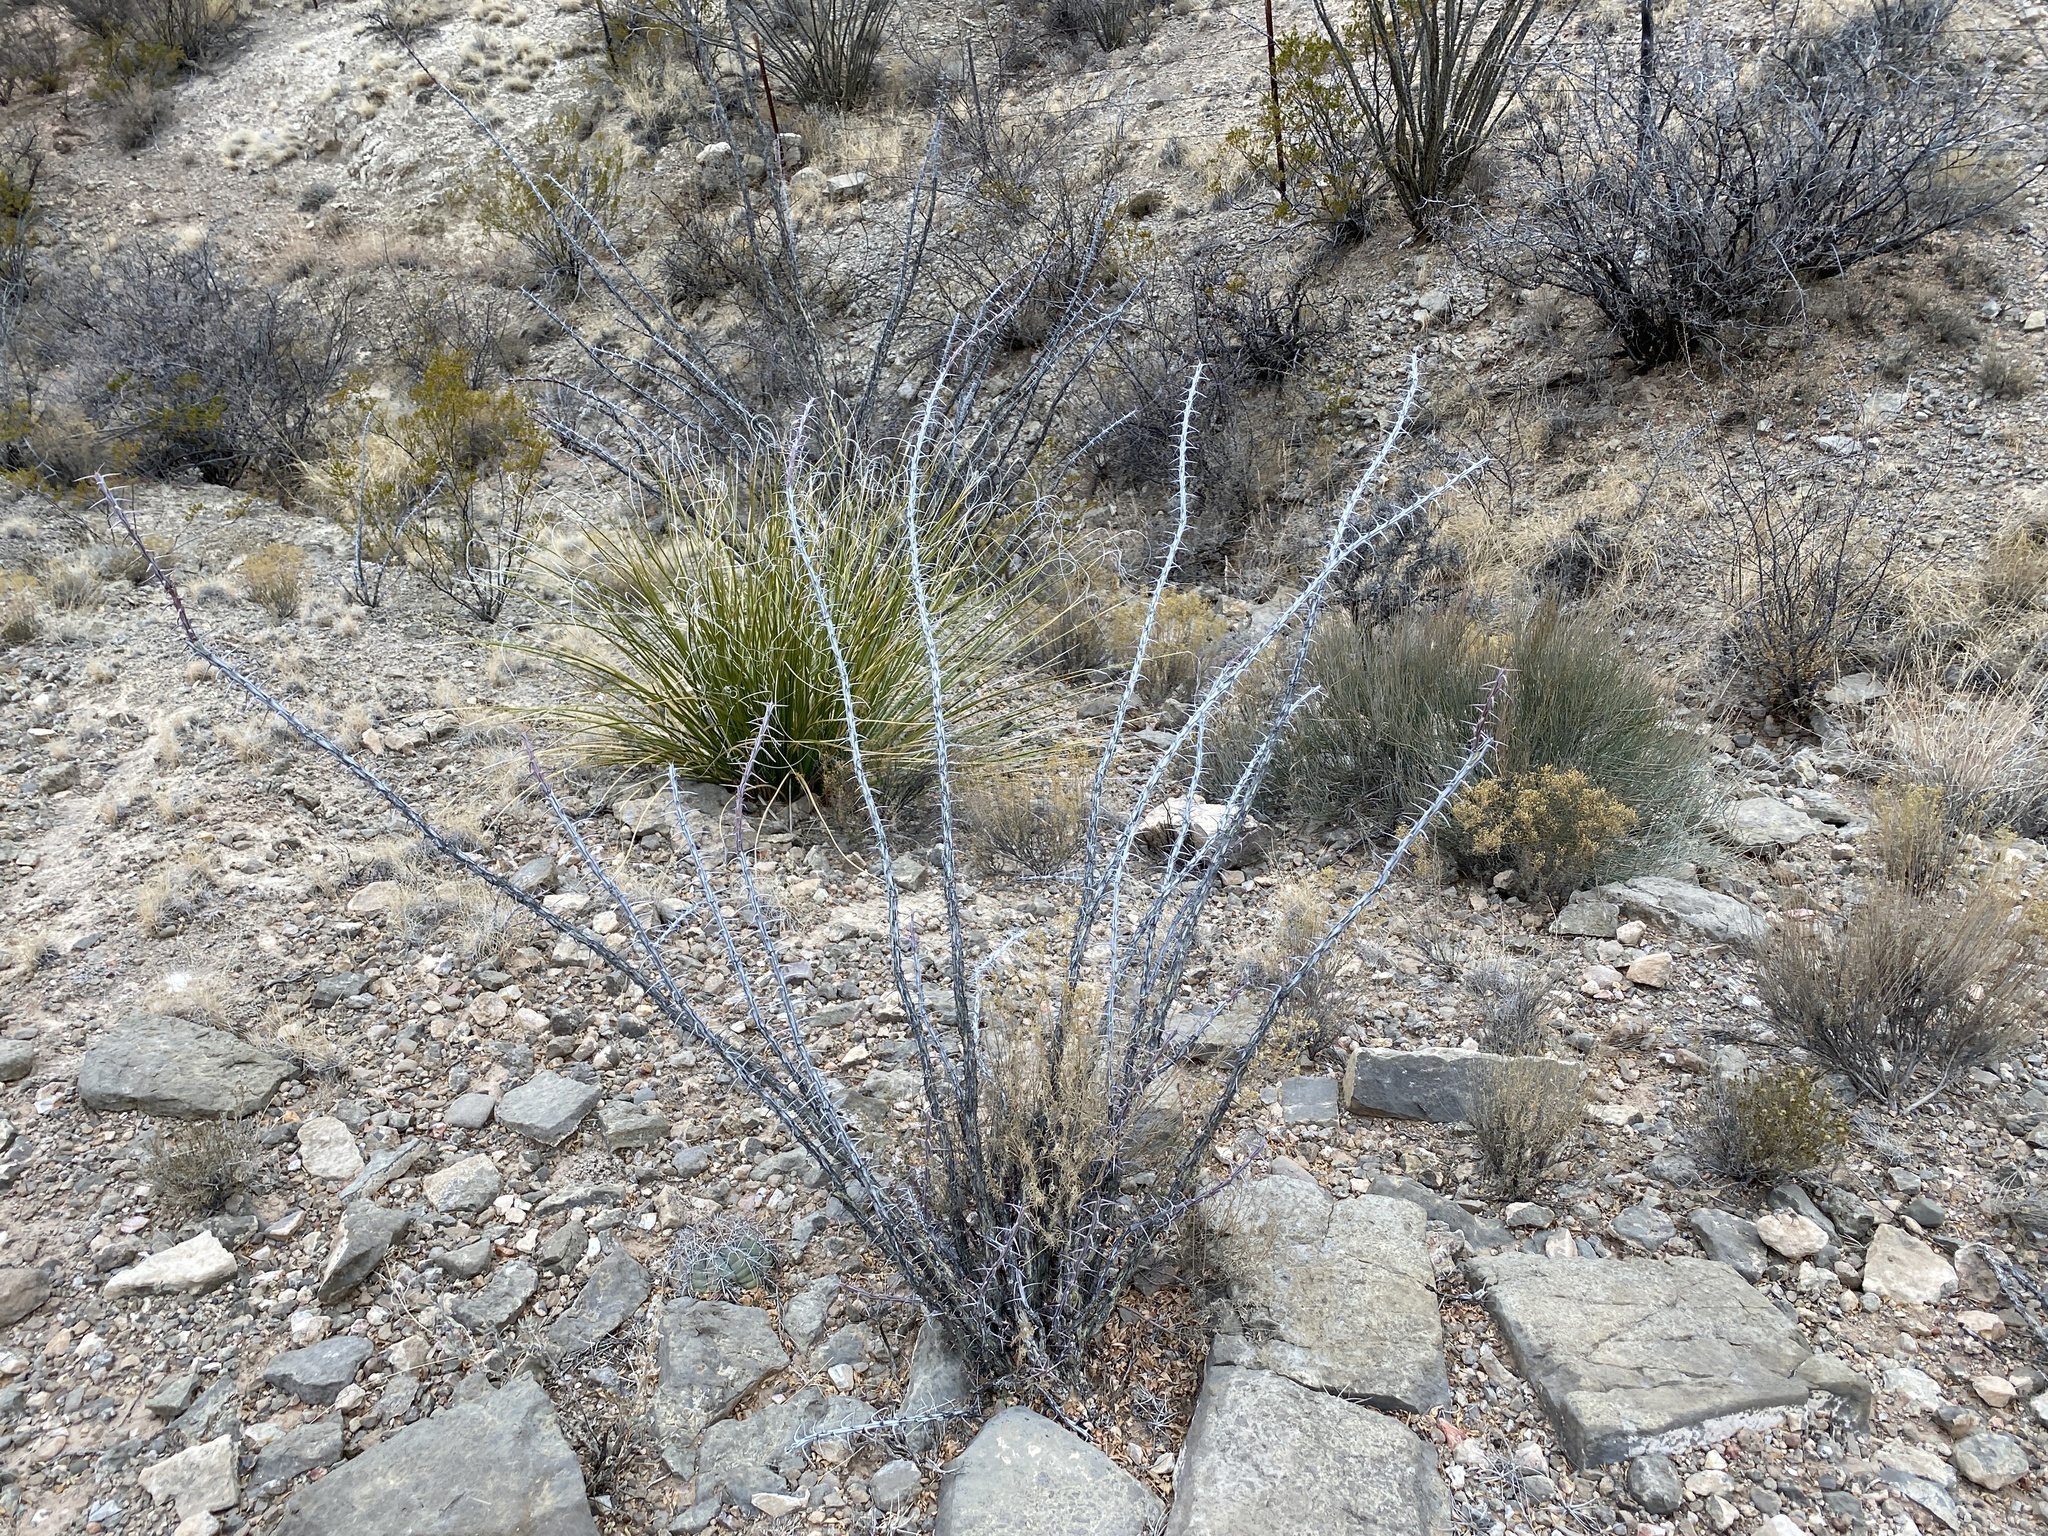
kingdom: Plantae
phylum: Tracheophyta
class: Magnoliopsida
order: Ericales
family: Fouquieriaceae
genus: Fouquieria
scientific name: Fouquieria splendens
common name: Vine-cactus
